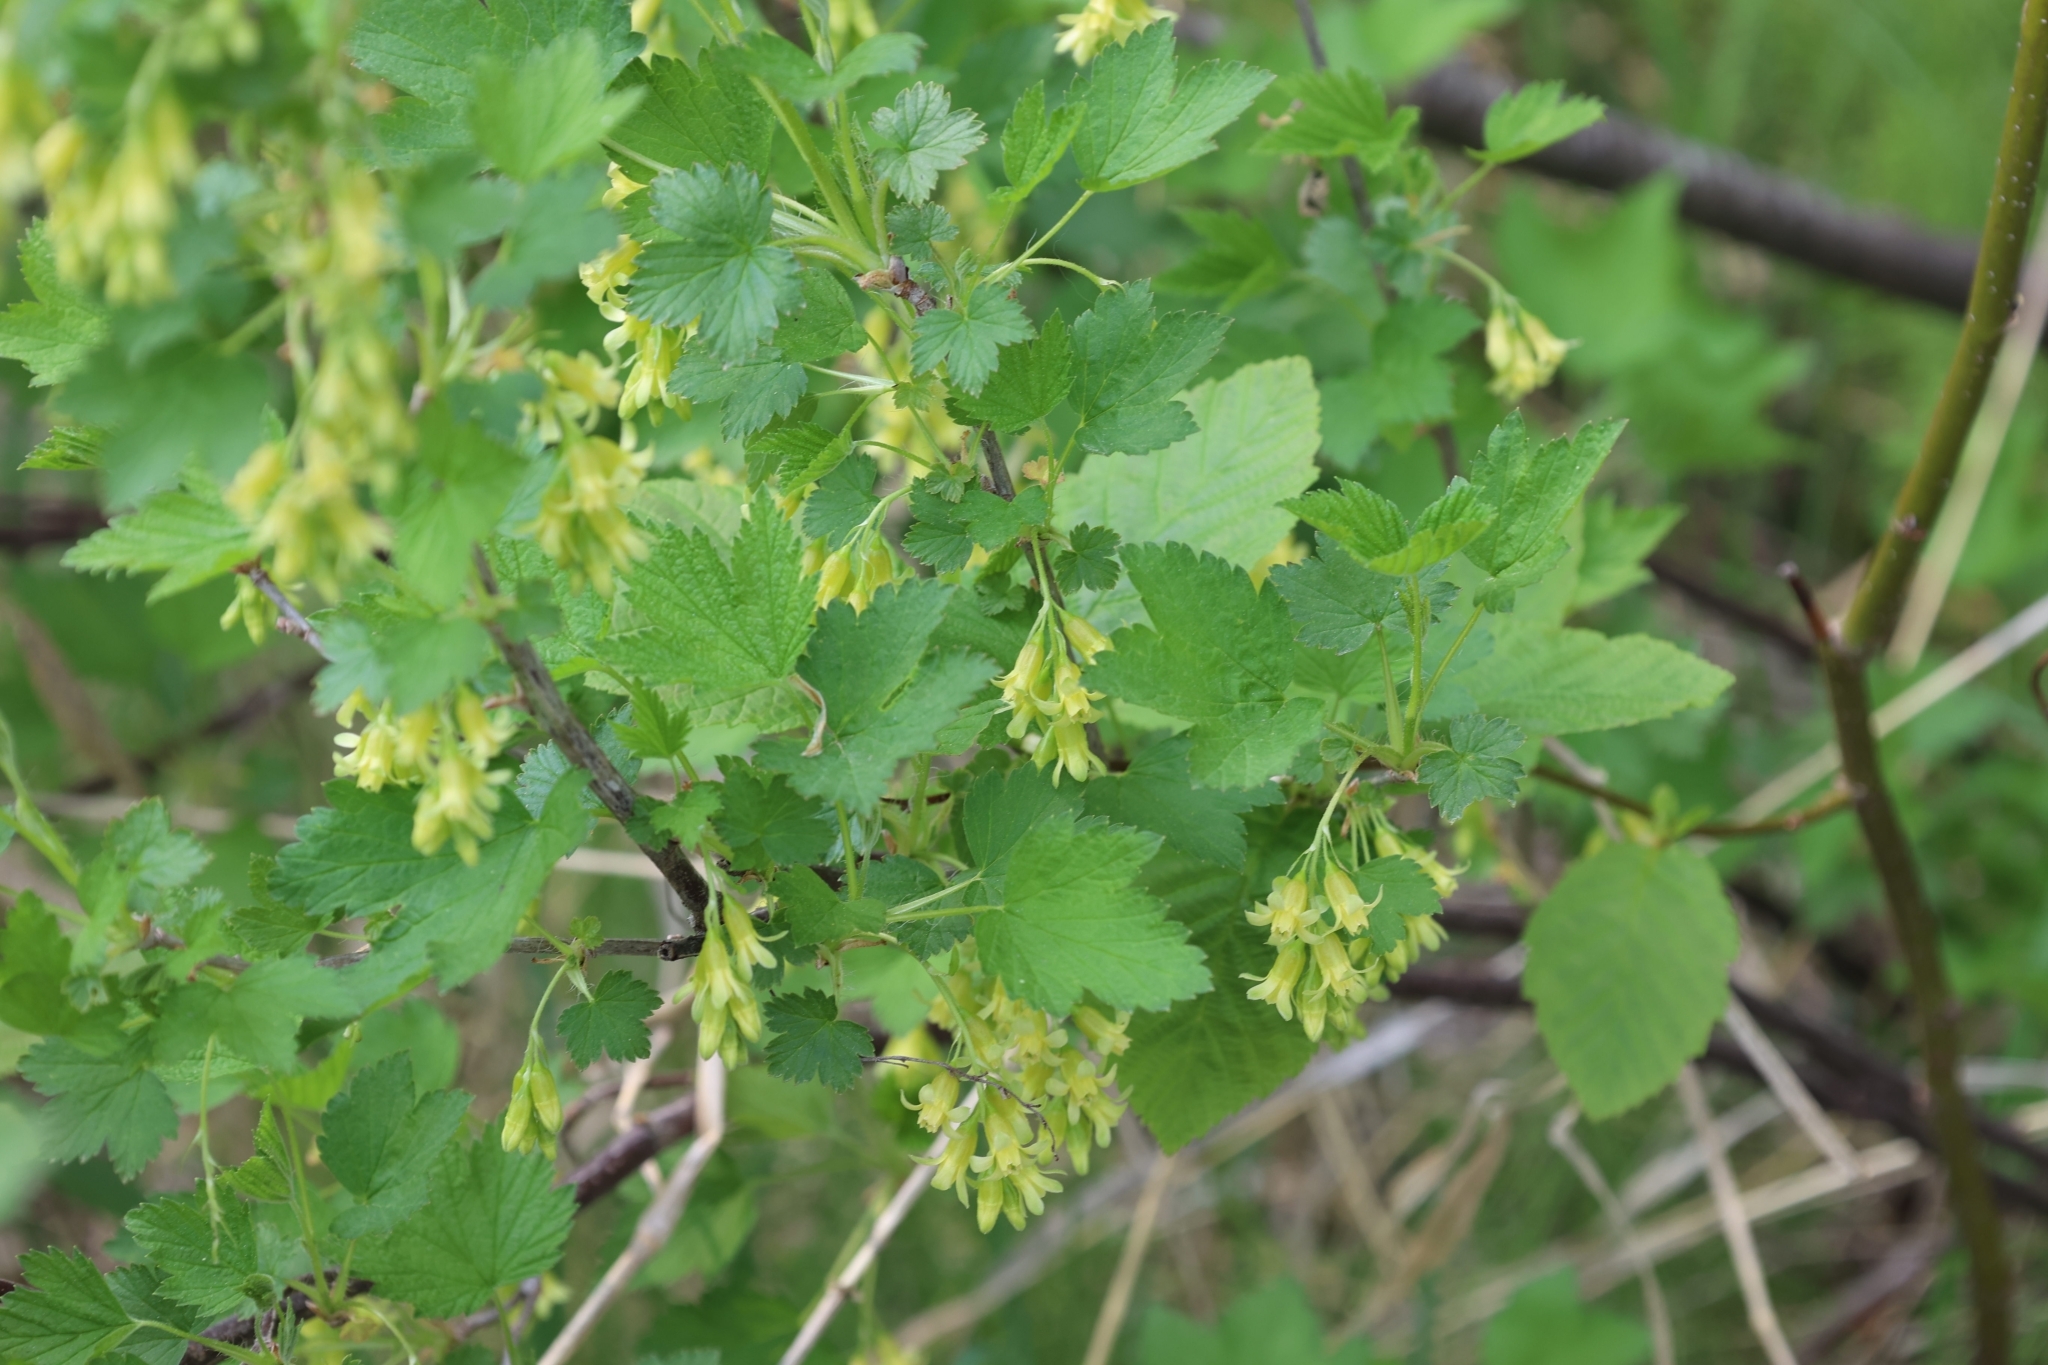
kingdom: Plantae
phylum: Tracheophyta
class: Magnoliopsida
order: Saxifragales
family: Grossulariaceae
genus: Ribes
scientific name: Ribes americanum
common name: American black currant
